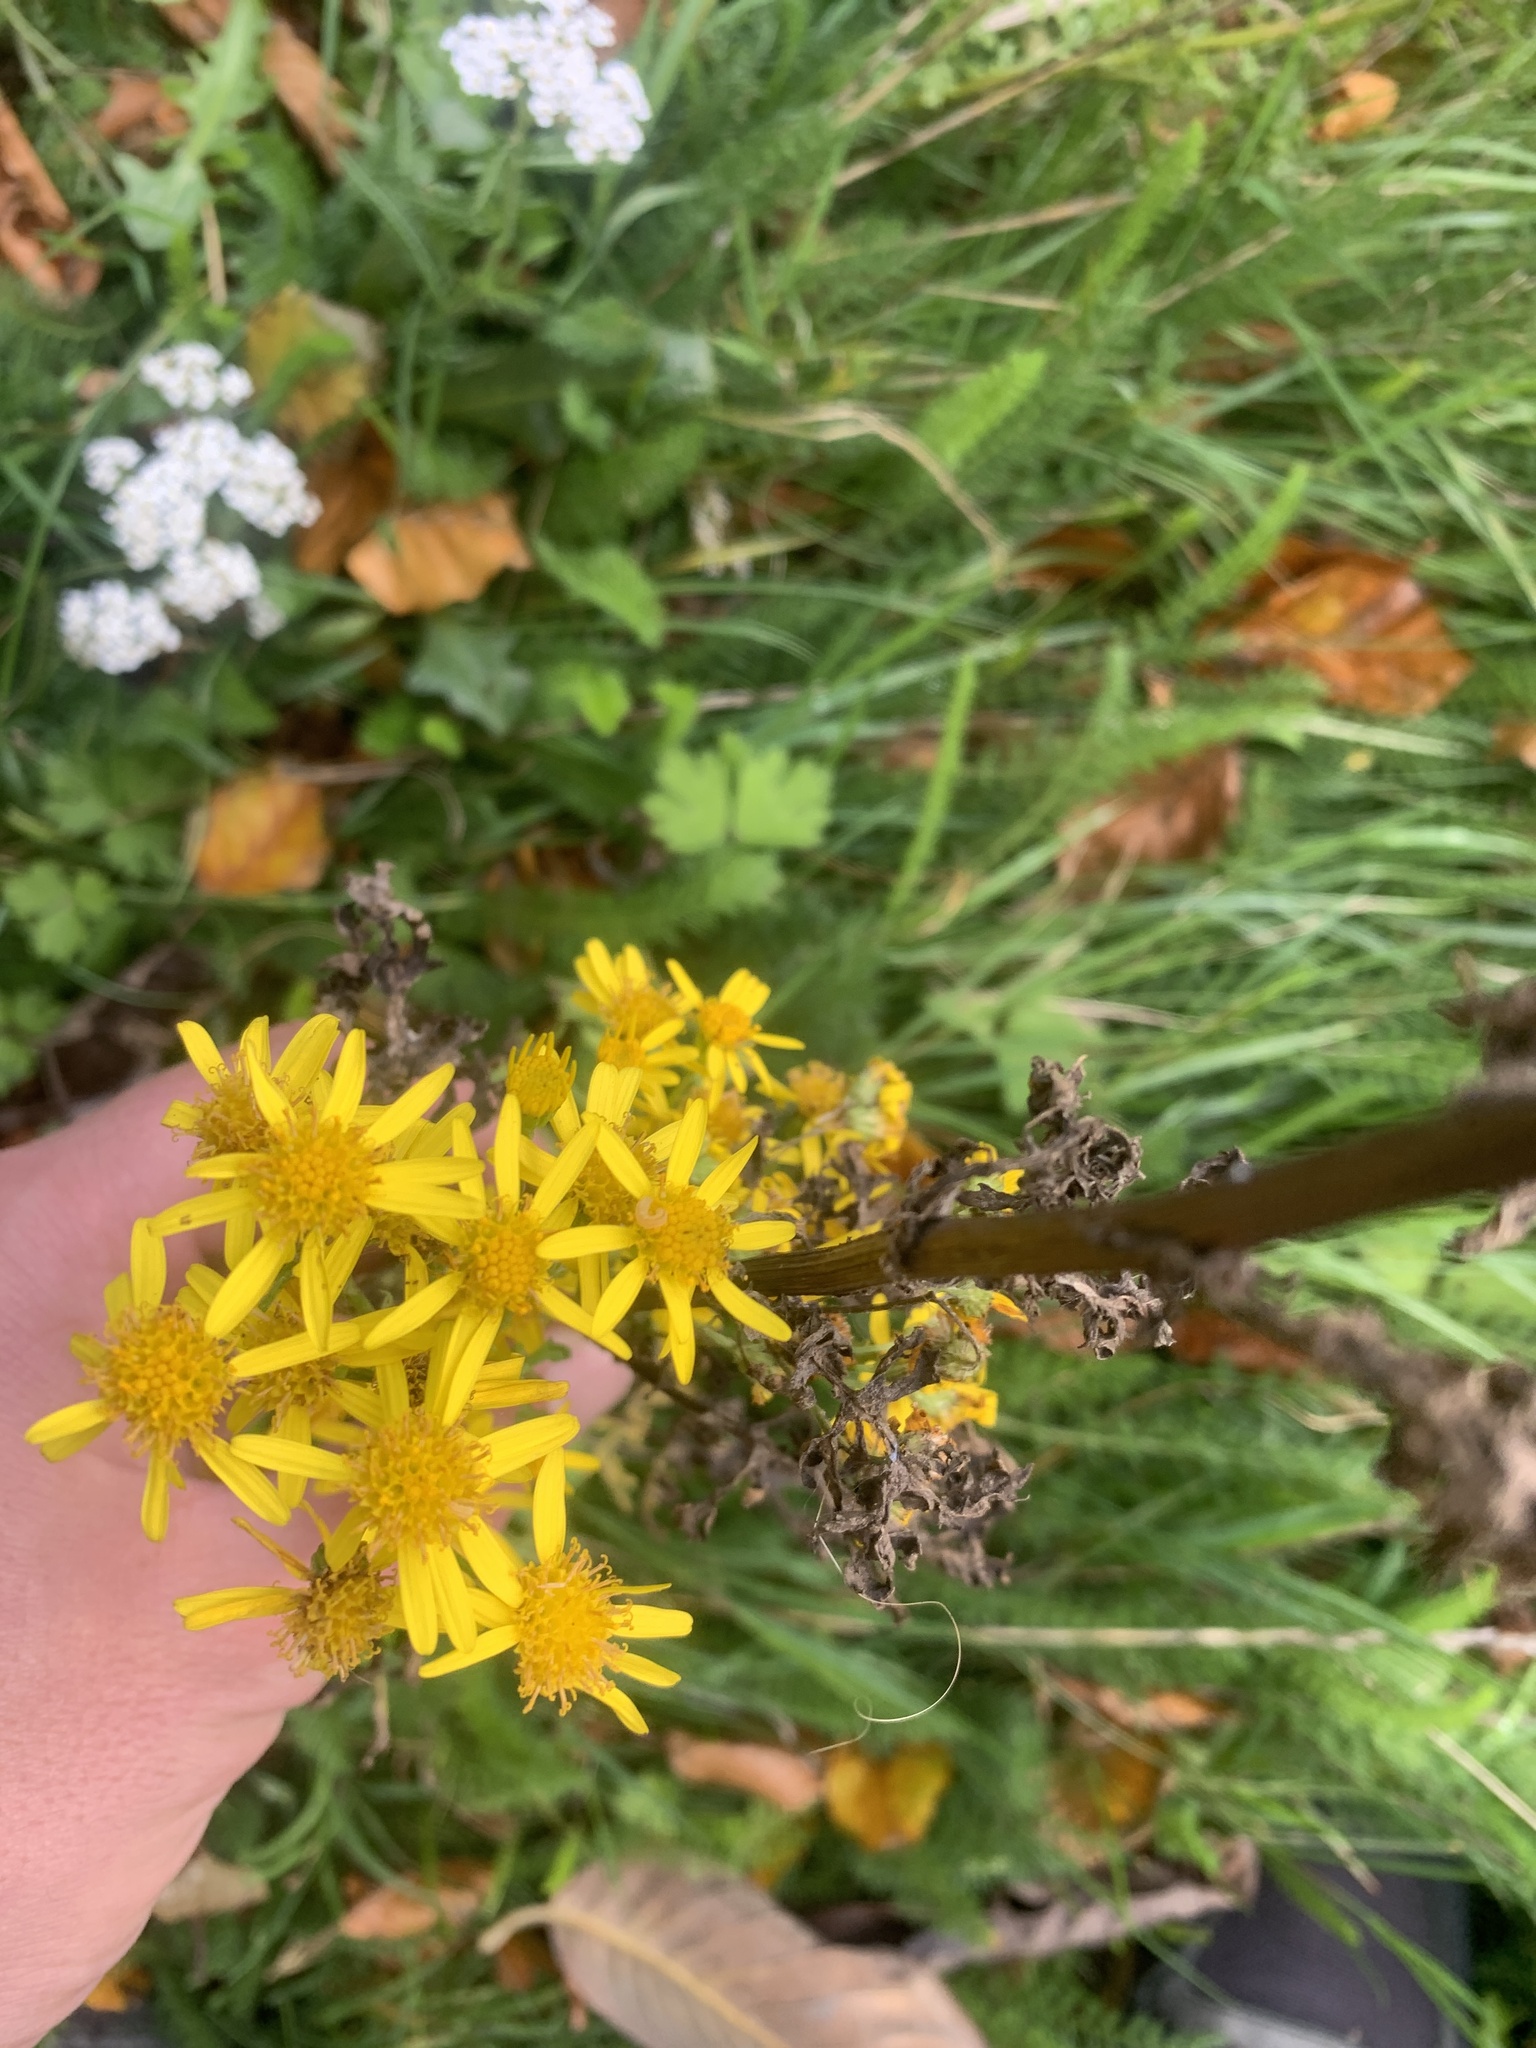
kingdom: Plantae
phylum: Tracheophyta
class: Magnoliopsida
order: Asterales
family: Asteraceae
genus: Jacobaea
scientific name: Jacobaea vulgaris
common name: Stinking willie
